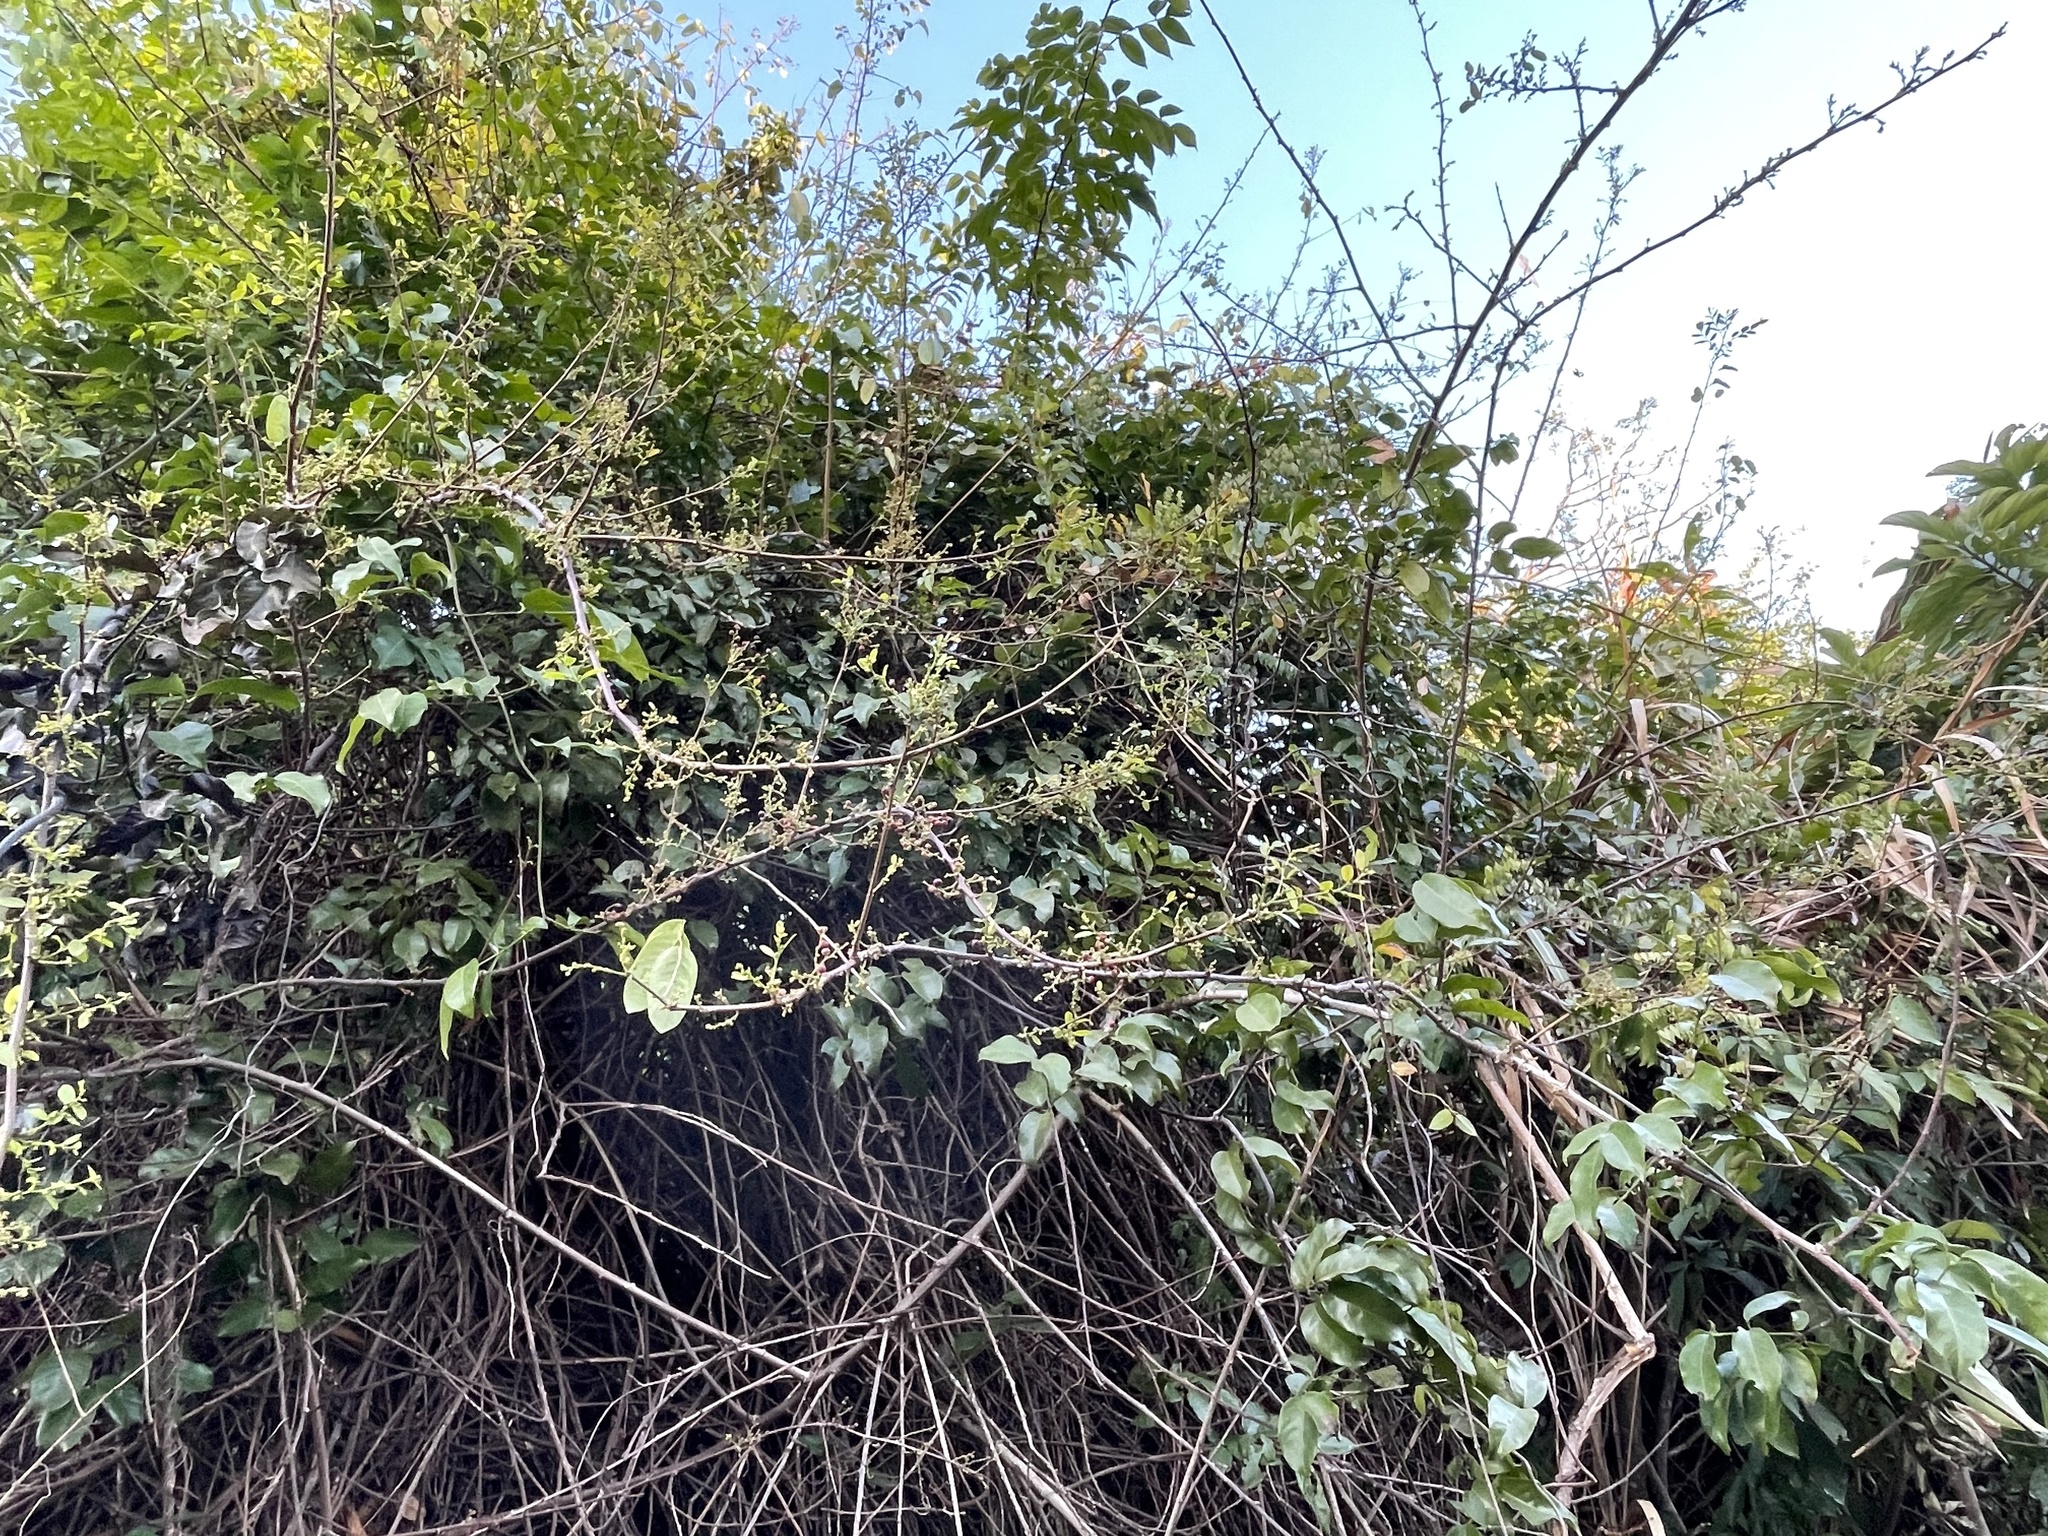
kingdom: Plantae
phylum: Tracheophyta
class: Magnoliopsida
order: Malpighiales
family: Phyllanthaceae
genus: Phyllanthus
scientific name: Phyllanthus reticulatus
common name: Potato bush
